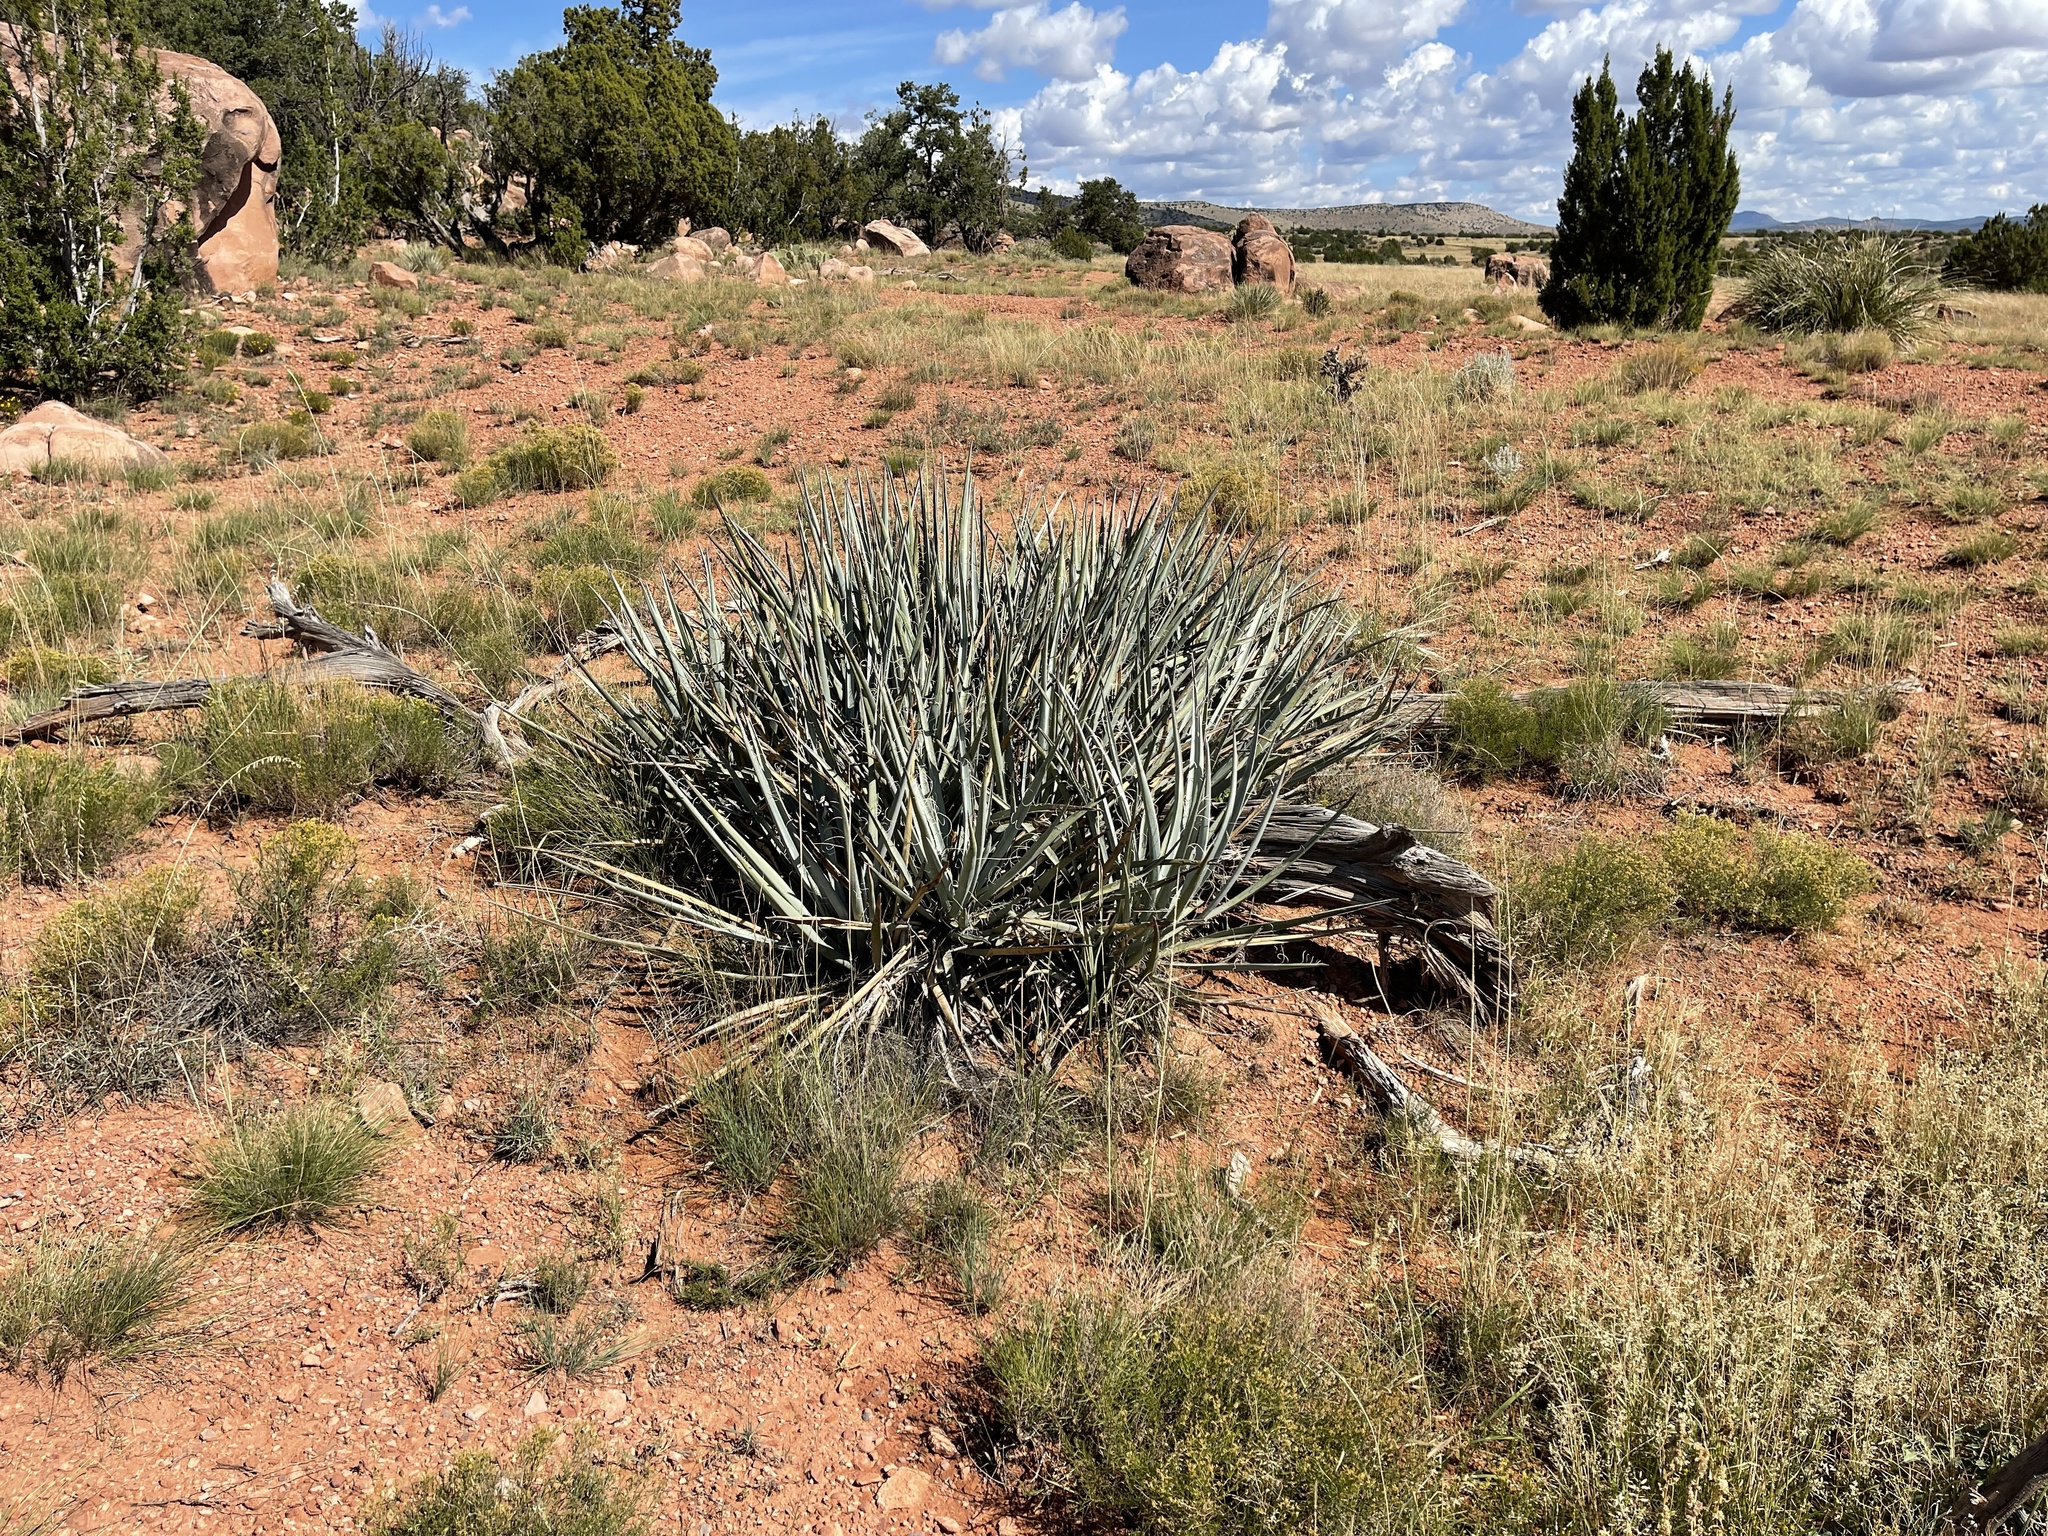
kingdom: Plantae
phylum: Tracheophyta
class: Liliopsida
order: Asparagales
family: Asparagaceae
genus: Yucca
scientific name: Yucca baccata
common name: Banana yucca
